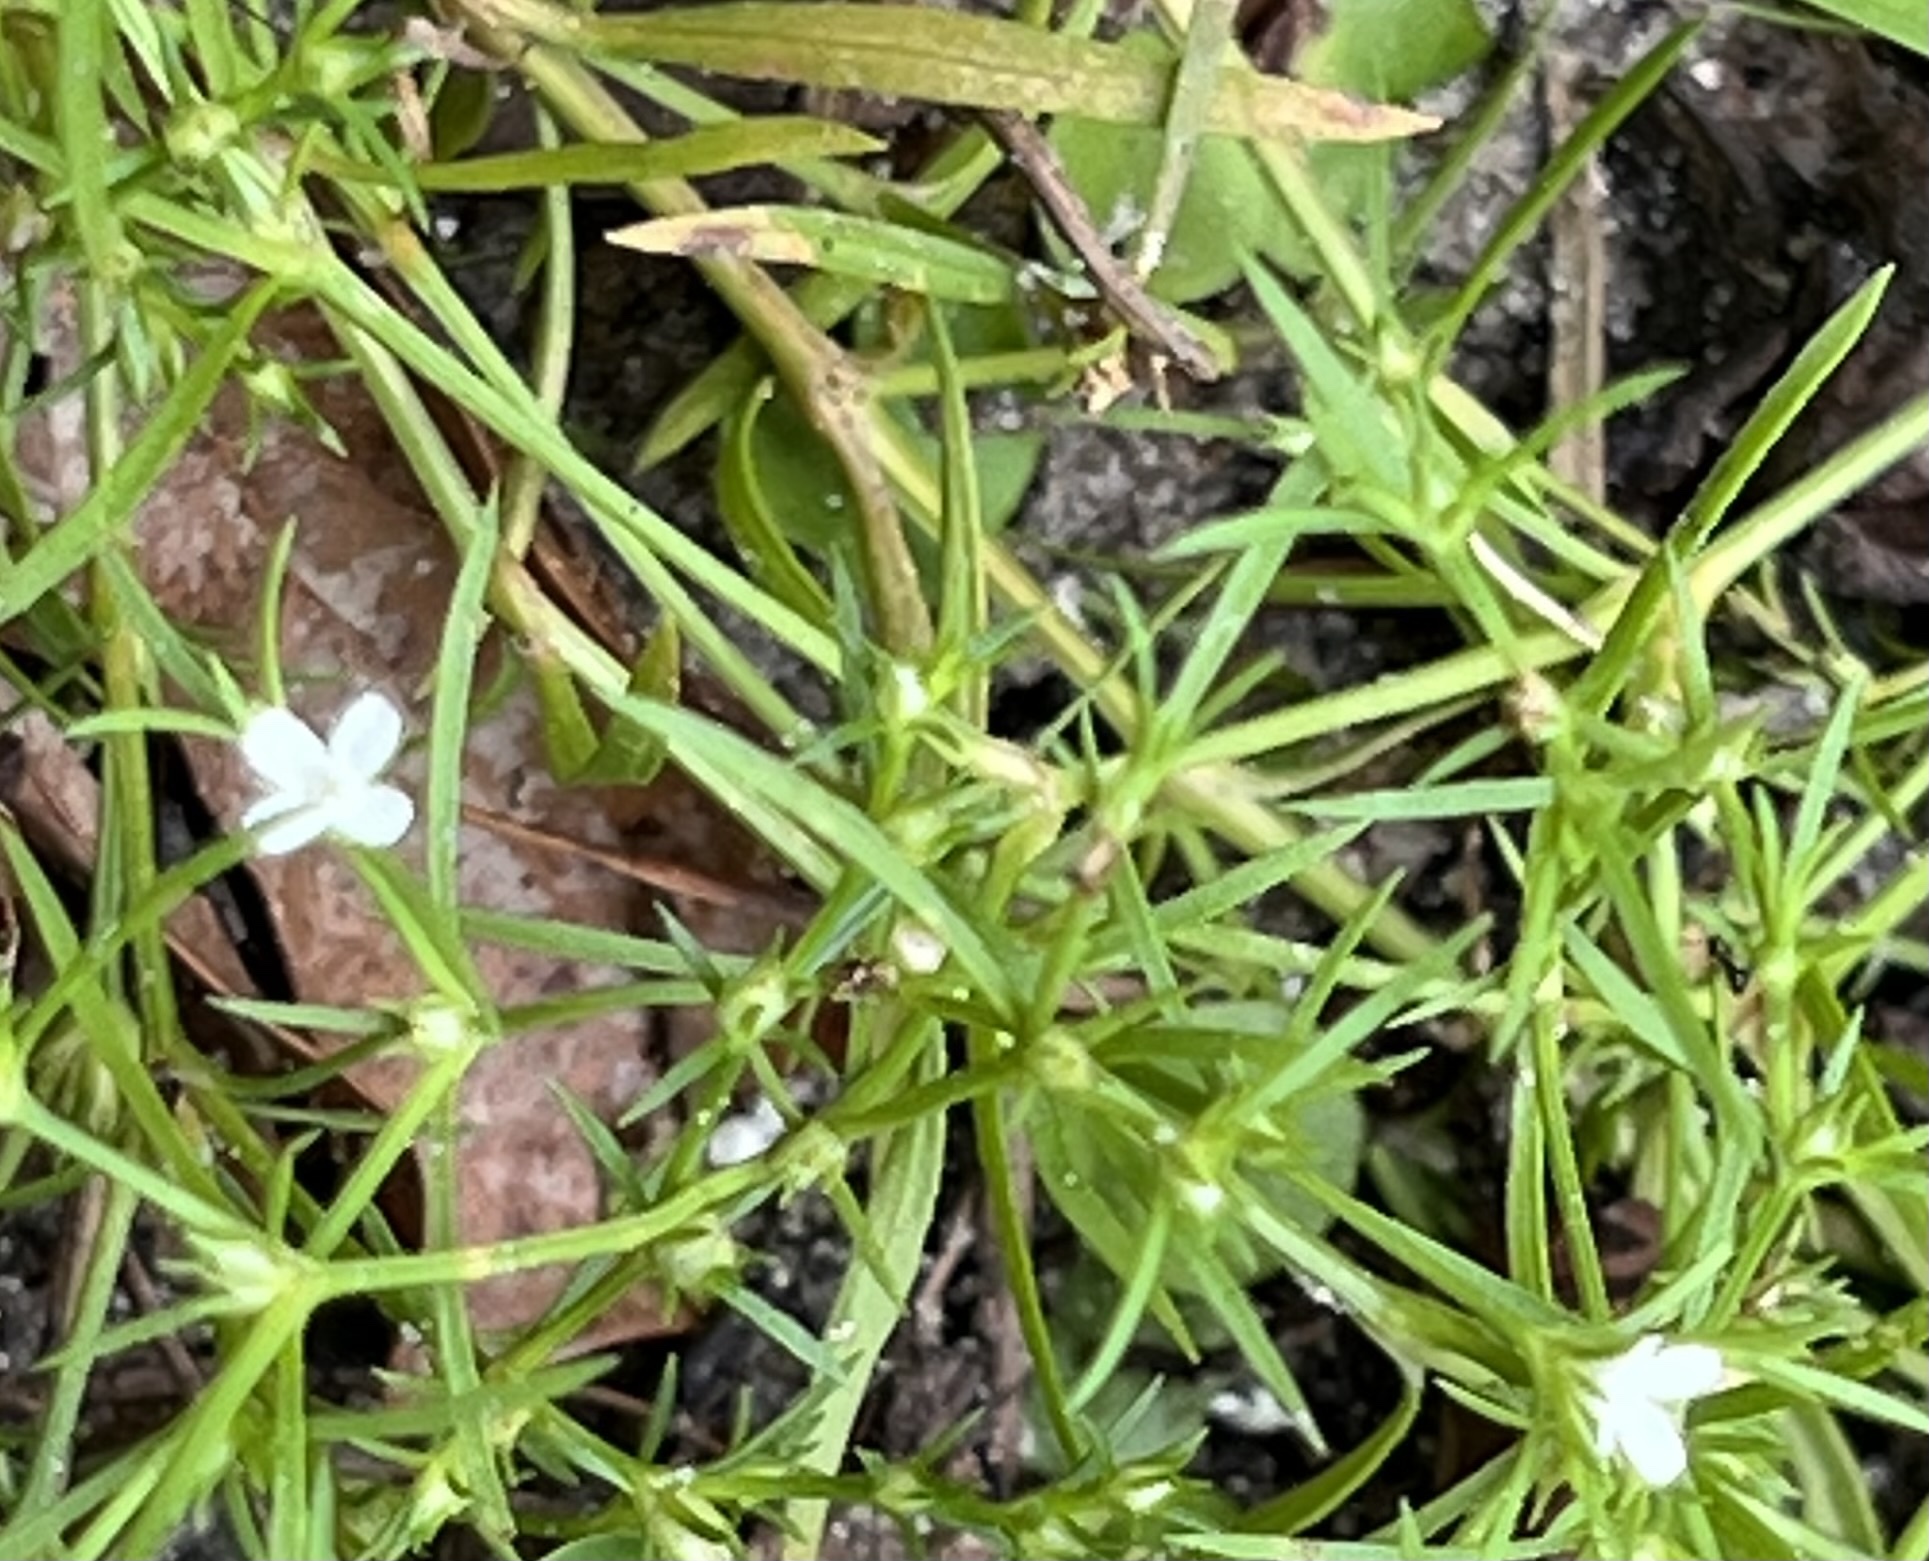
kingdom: Plantae
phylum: Tracheophyta
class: Magnoliopsida
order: Lamiales
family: Tetrachondraceae
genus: Polypremum
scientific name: Polypremum procumbens
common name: Juniper-leaf
